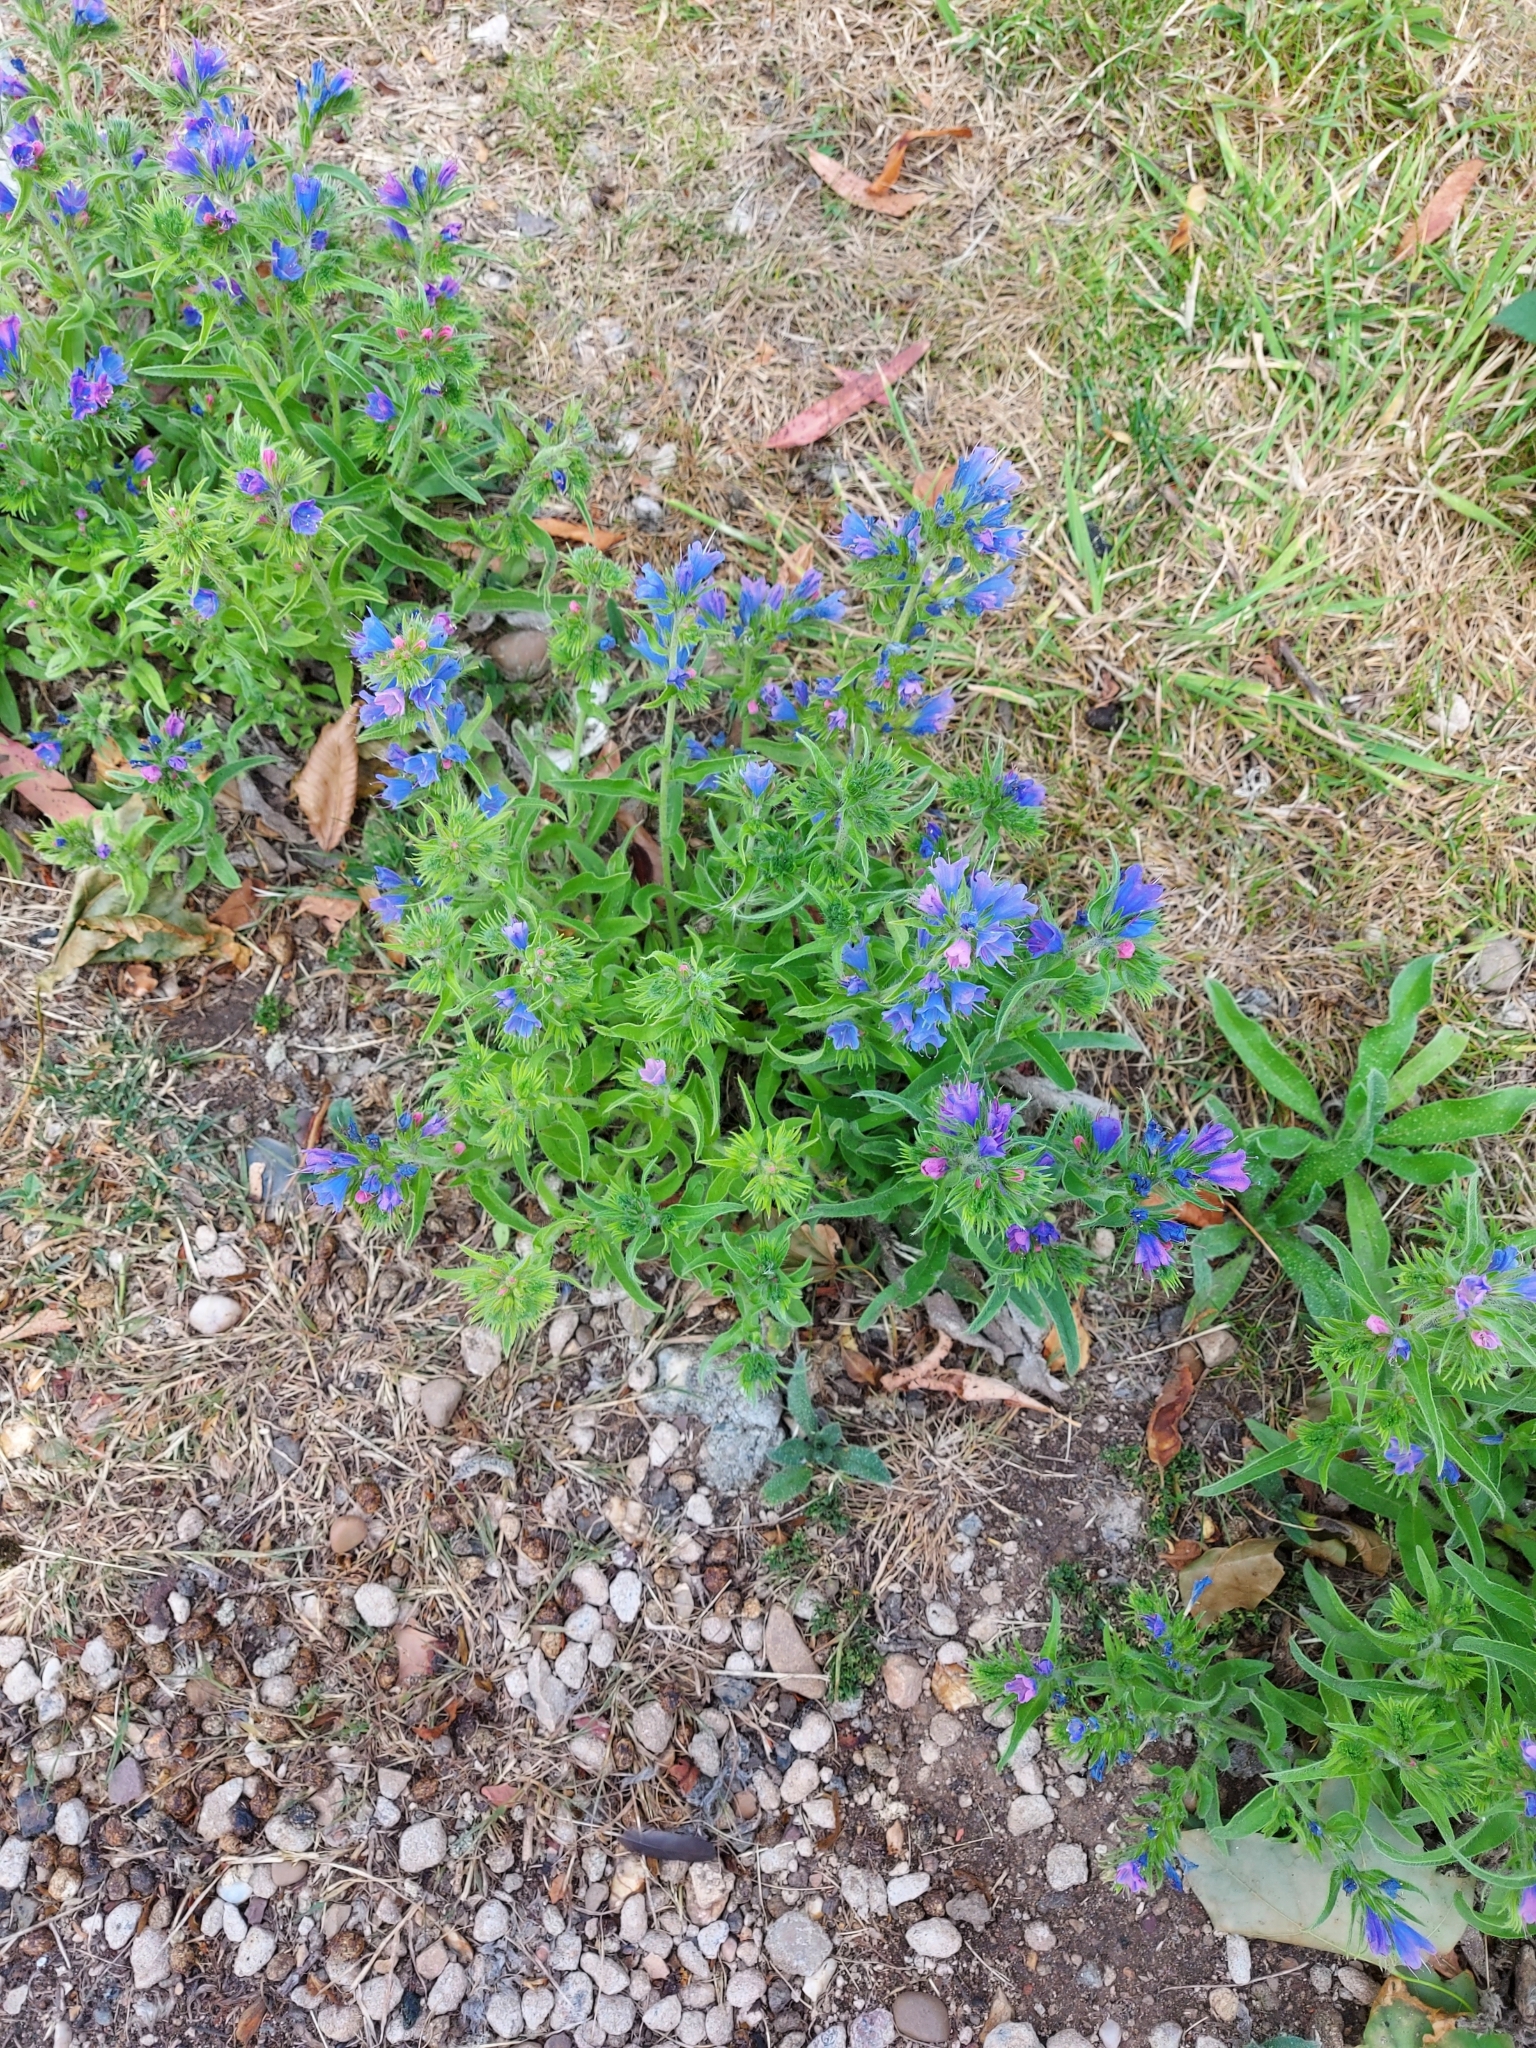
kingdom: Plantae
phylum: Tracheophyta
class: Magnoliopsida
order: Boraginales
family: Boraginaceae
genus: Echium
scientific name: Echium vulgare
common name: Common viper's bugloss
